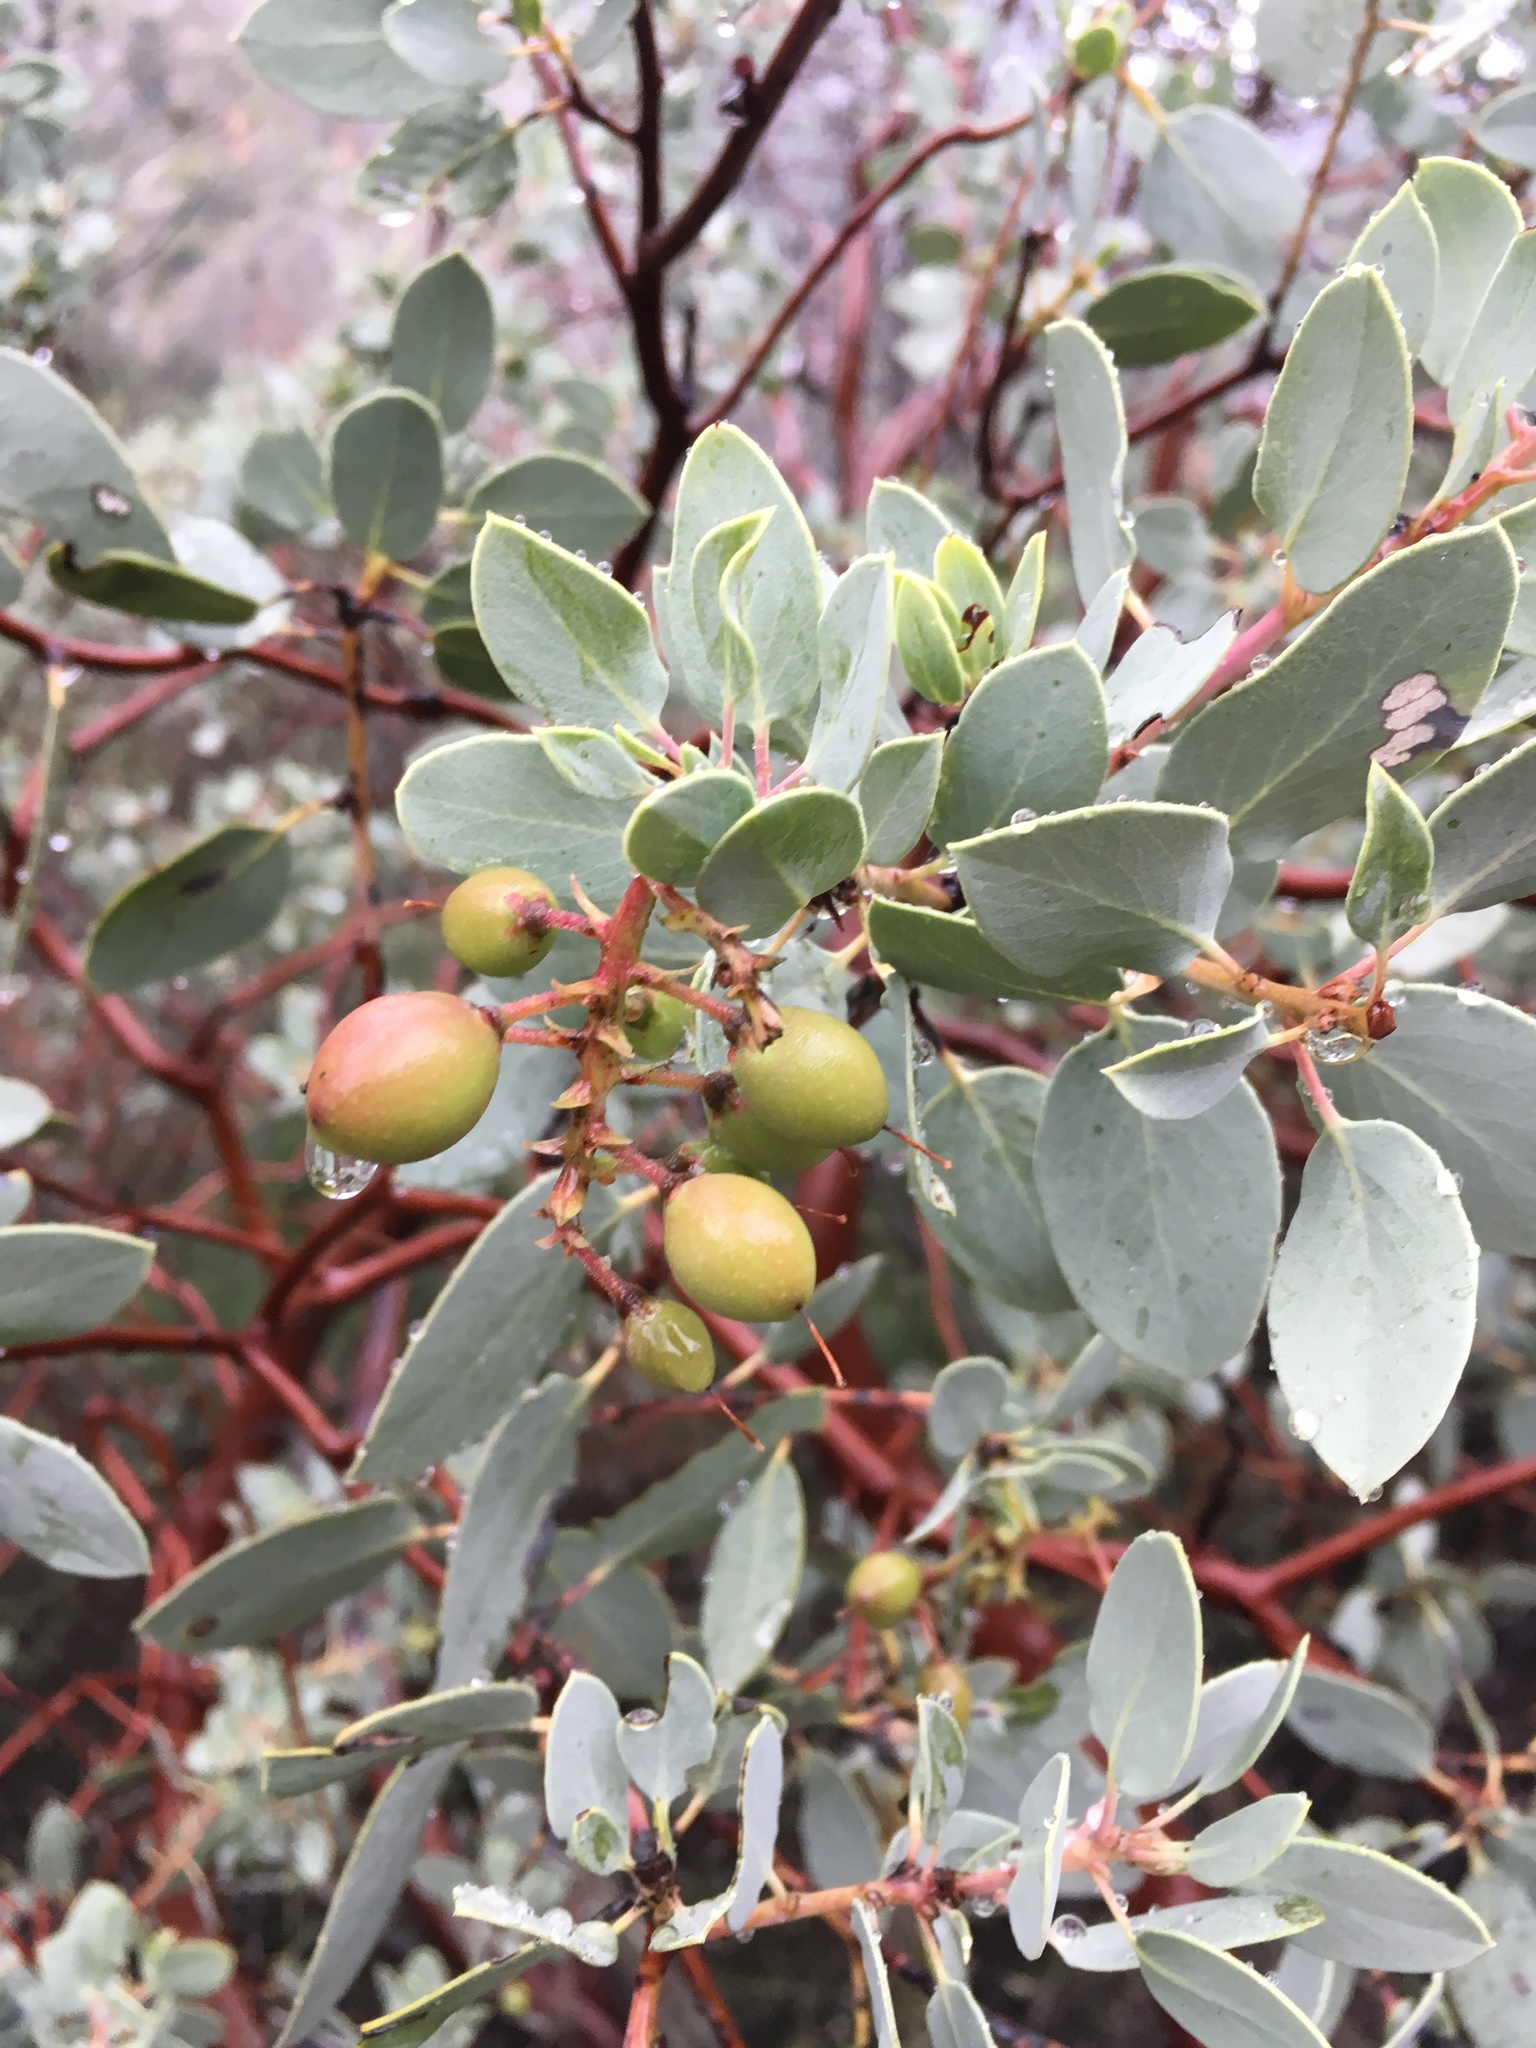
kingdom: Plantae
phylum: Tracheophyta
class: Magnoliopsida
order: Ericales
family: Ericaceae
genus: Arctostaphylos
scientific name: Arctostaphylos glauca
